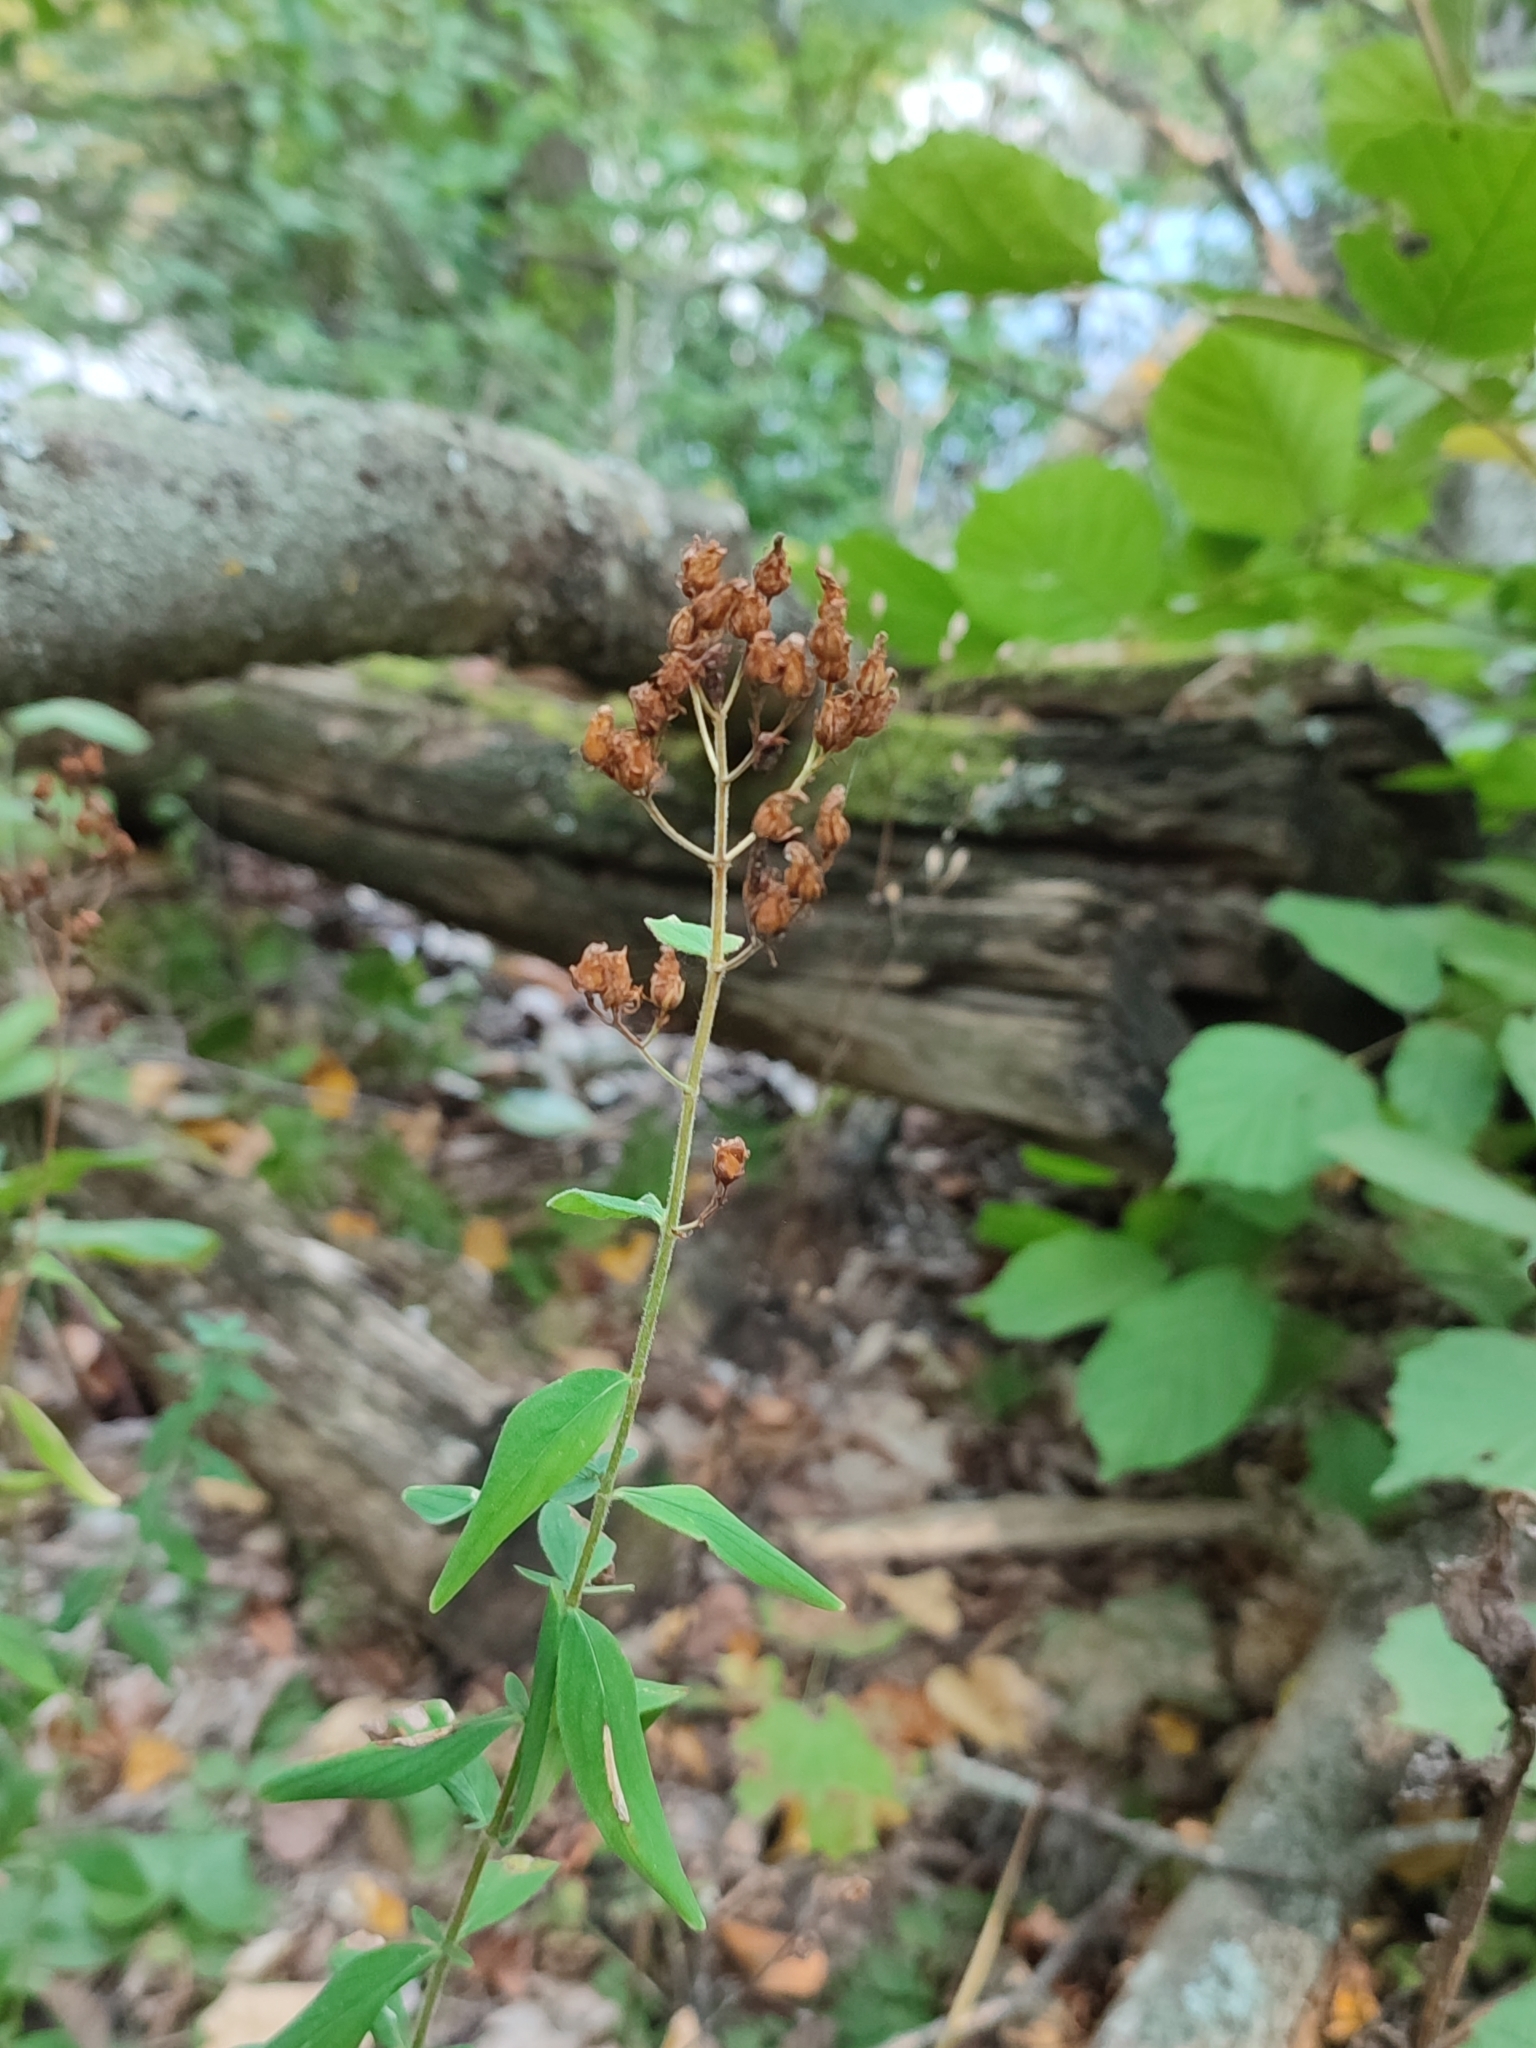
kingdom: Plantae
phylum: Tracheophyta
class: Magnoliopsida
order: Malpighiales
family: Hypericaceae
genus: Hypericum
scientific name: Hypericum hirsutum
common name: Hairy st. john's-wort
